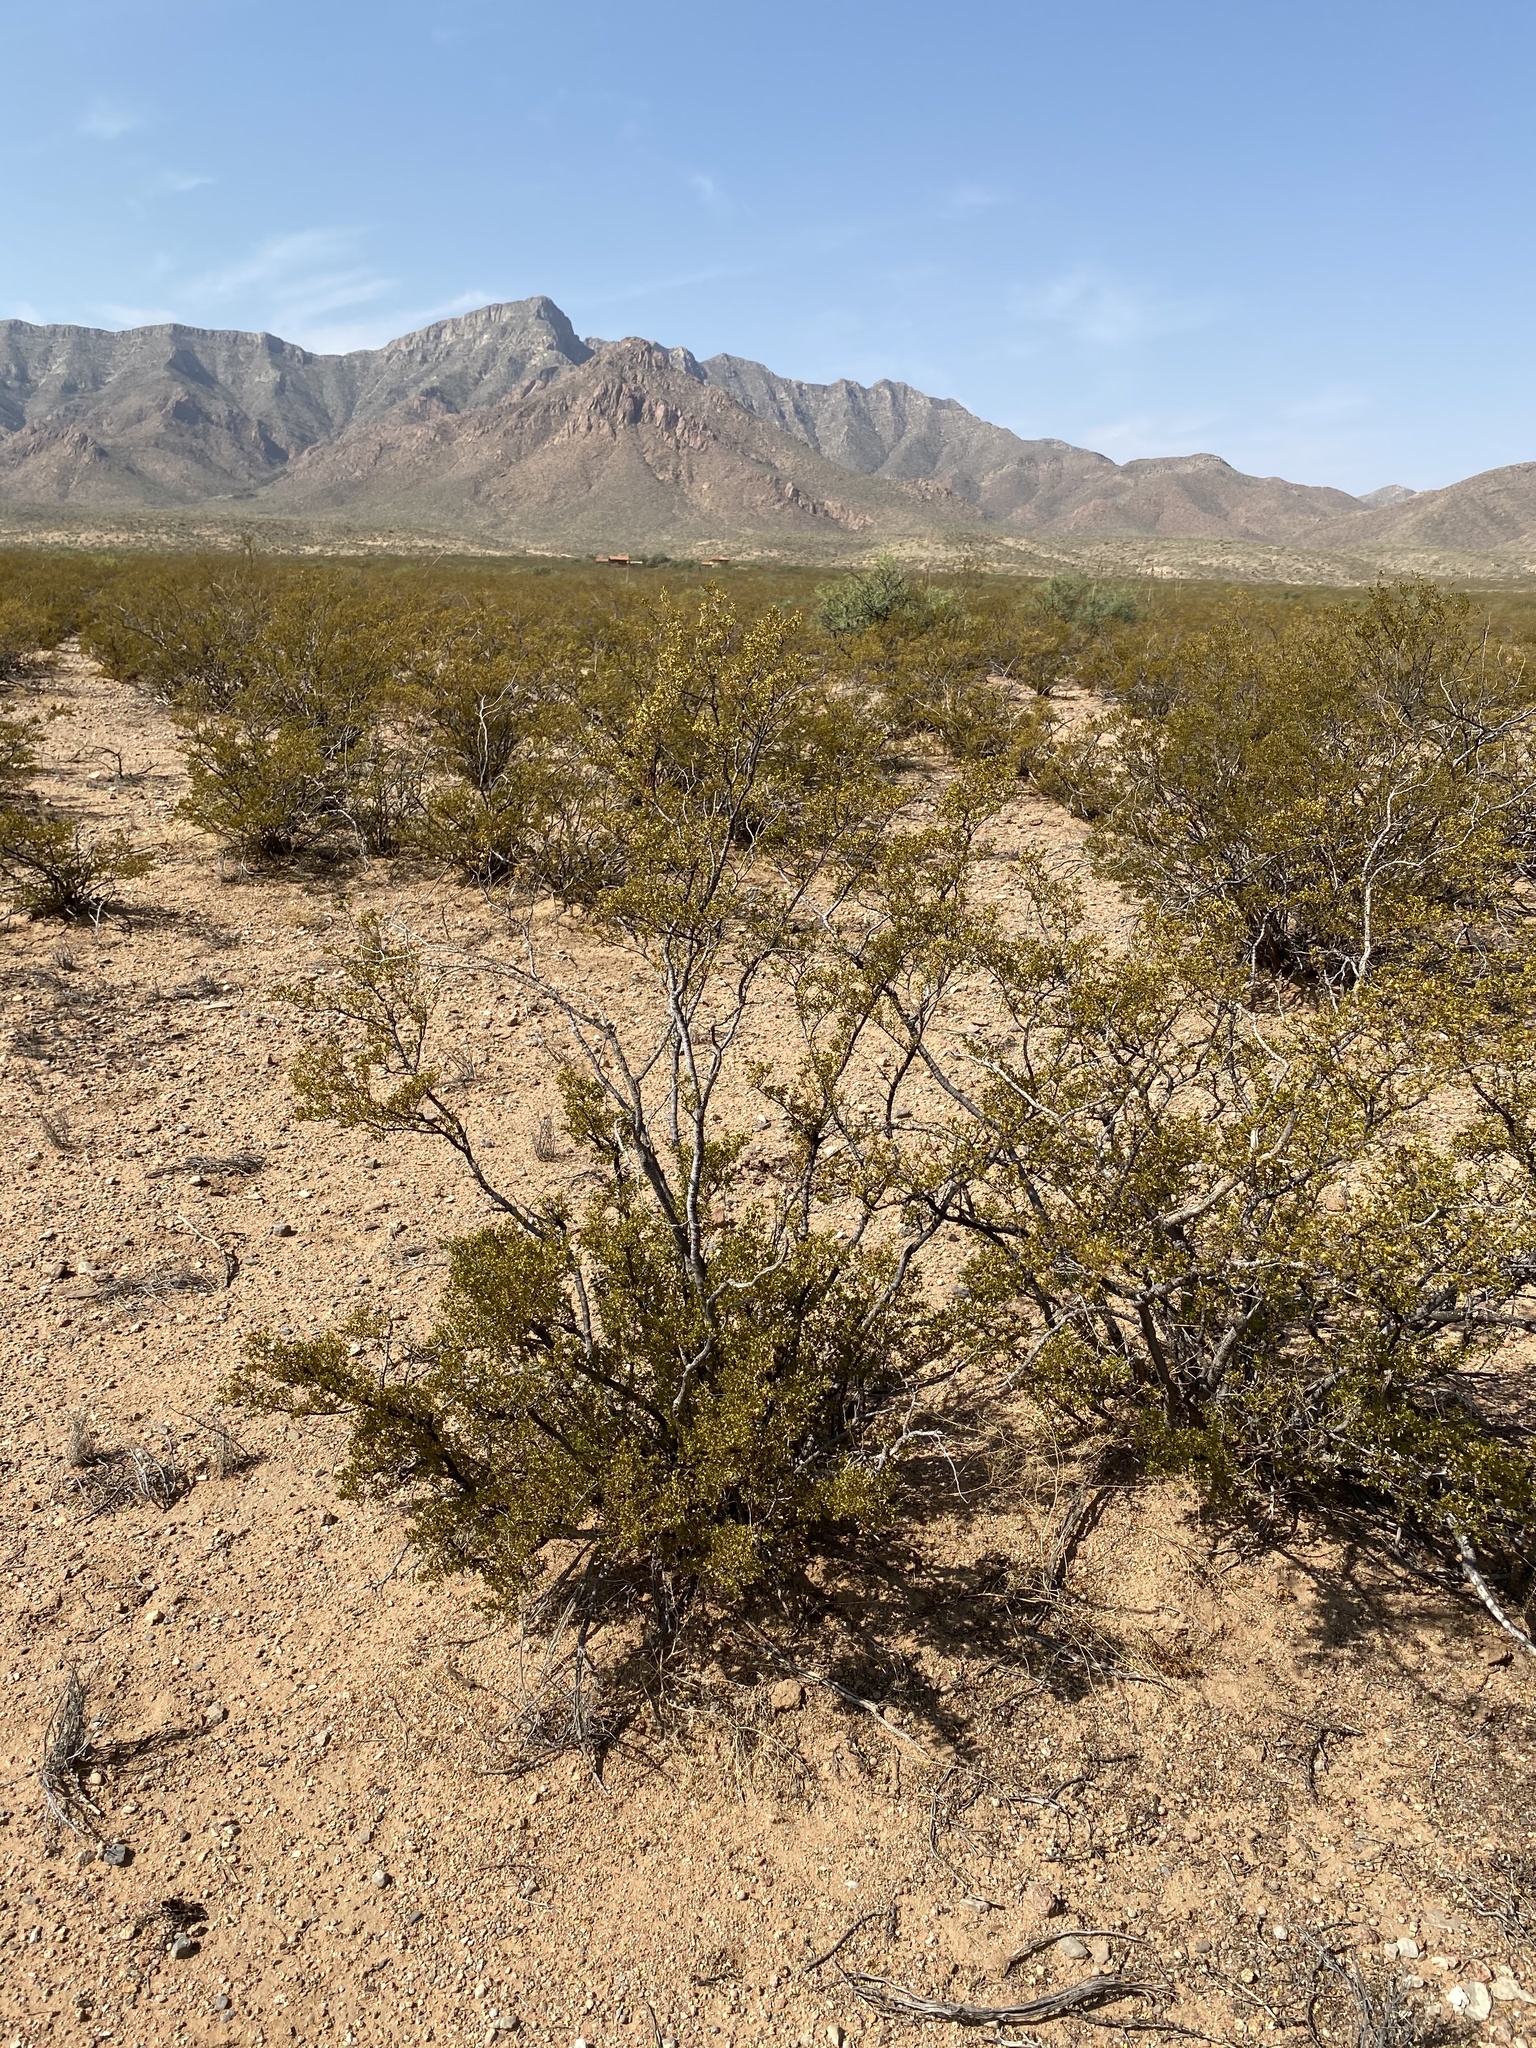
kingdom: Plantae
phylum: Tracheophyta
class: Magnoliopsida
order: Zygophyllales
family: Zygophyllaceae
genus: Larrea
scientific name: Larrea tridentata
